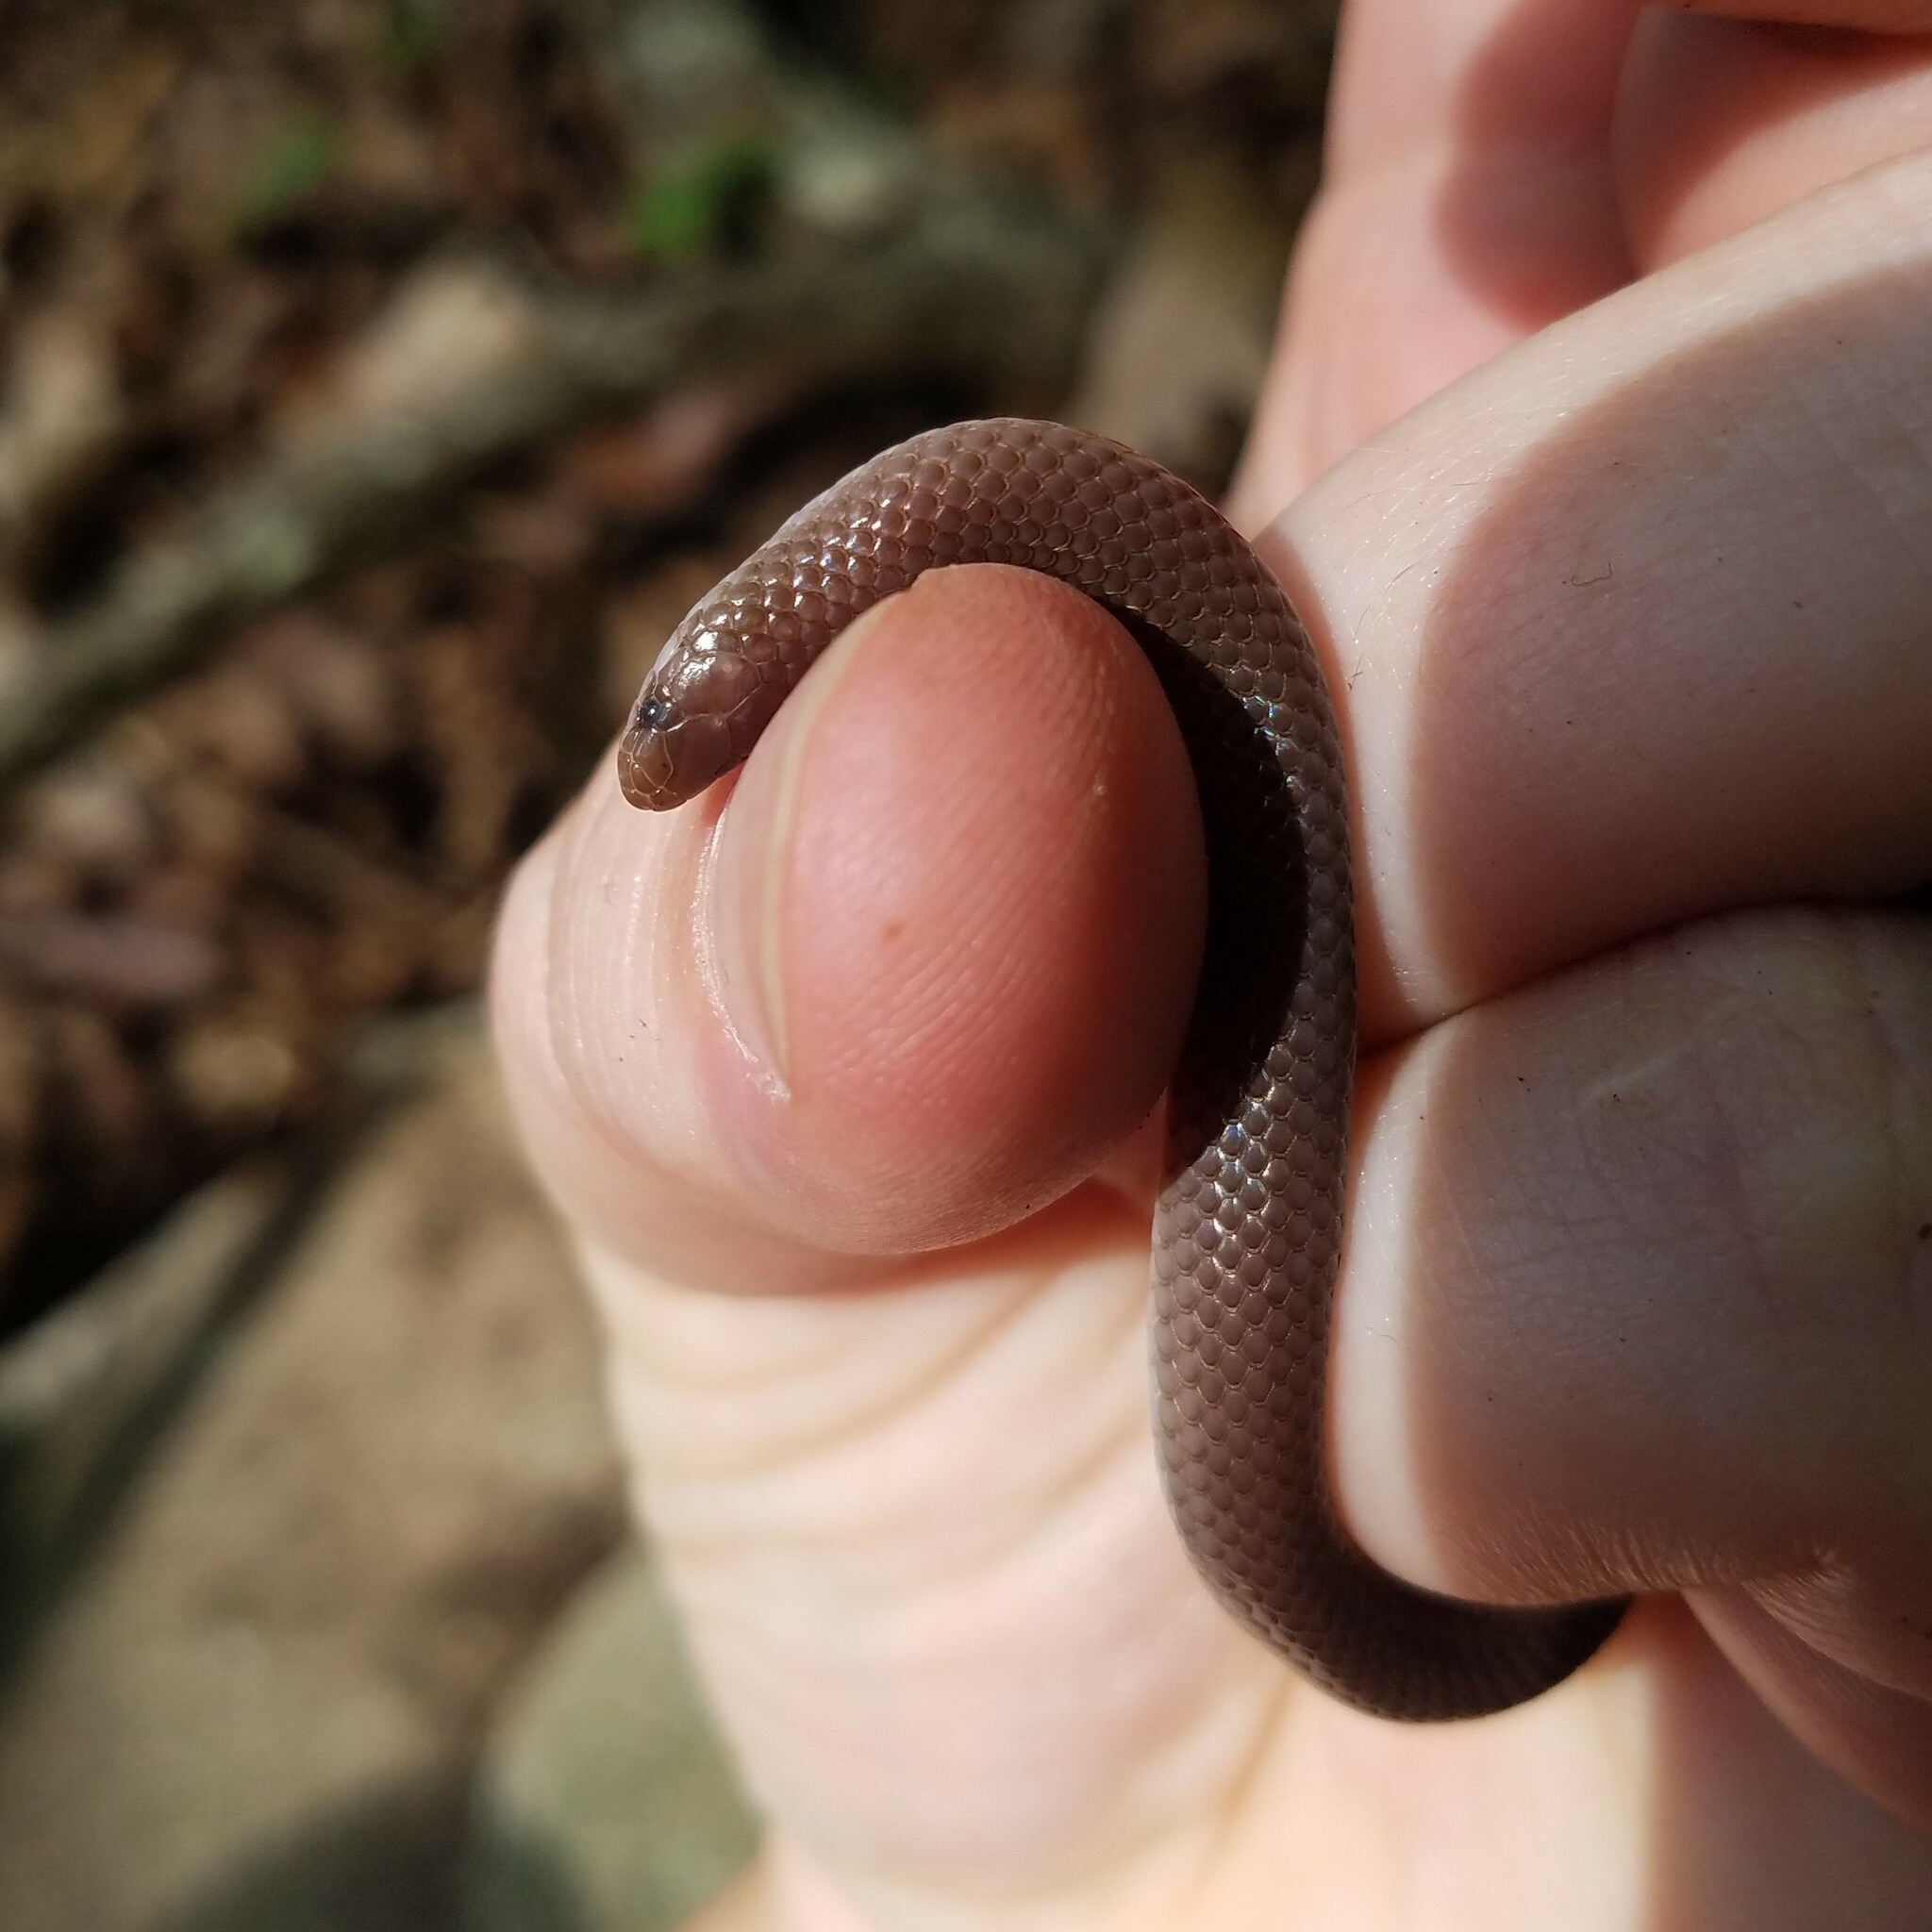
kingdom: Animalia
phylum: Chordata
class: Squamata
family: Colubridae
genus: Carphophis
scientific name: Carphophis amoenus
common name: Eastern worm snake
